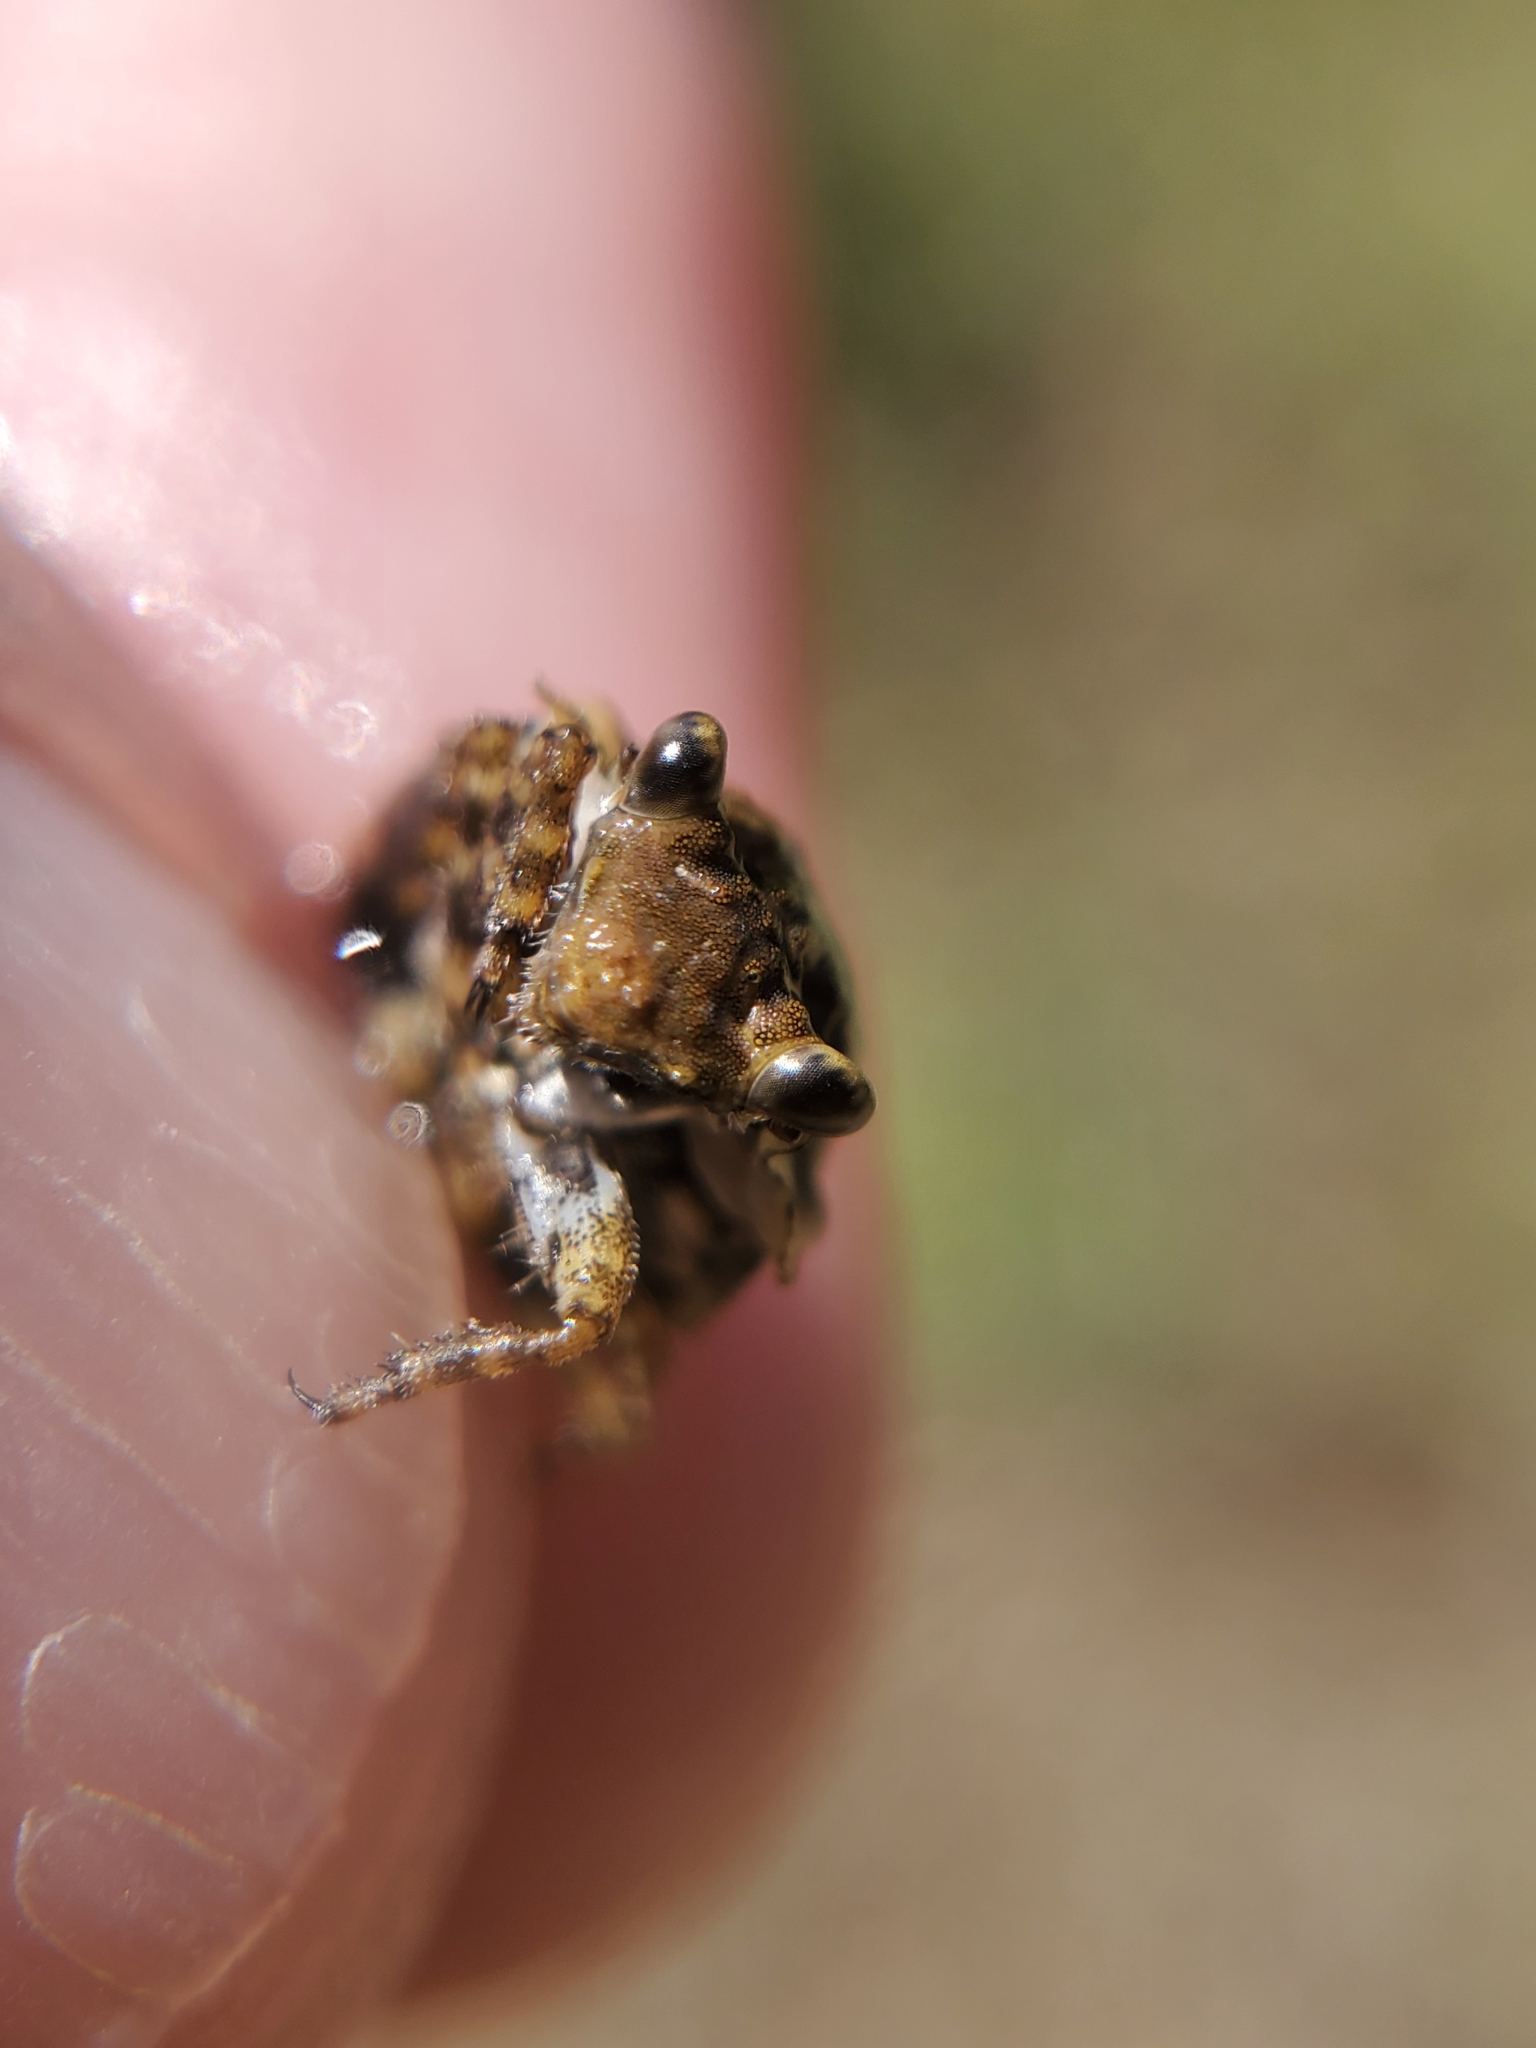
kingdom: Animalia
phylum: Arthropoda
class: Insecta
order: Hemiptera
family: Gelastocoridae
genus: Gelastocoris
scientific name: Gelastocoris oculatus
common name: Toad bug
